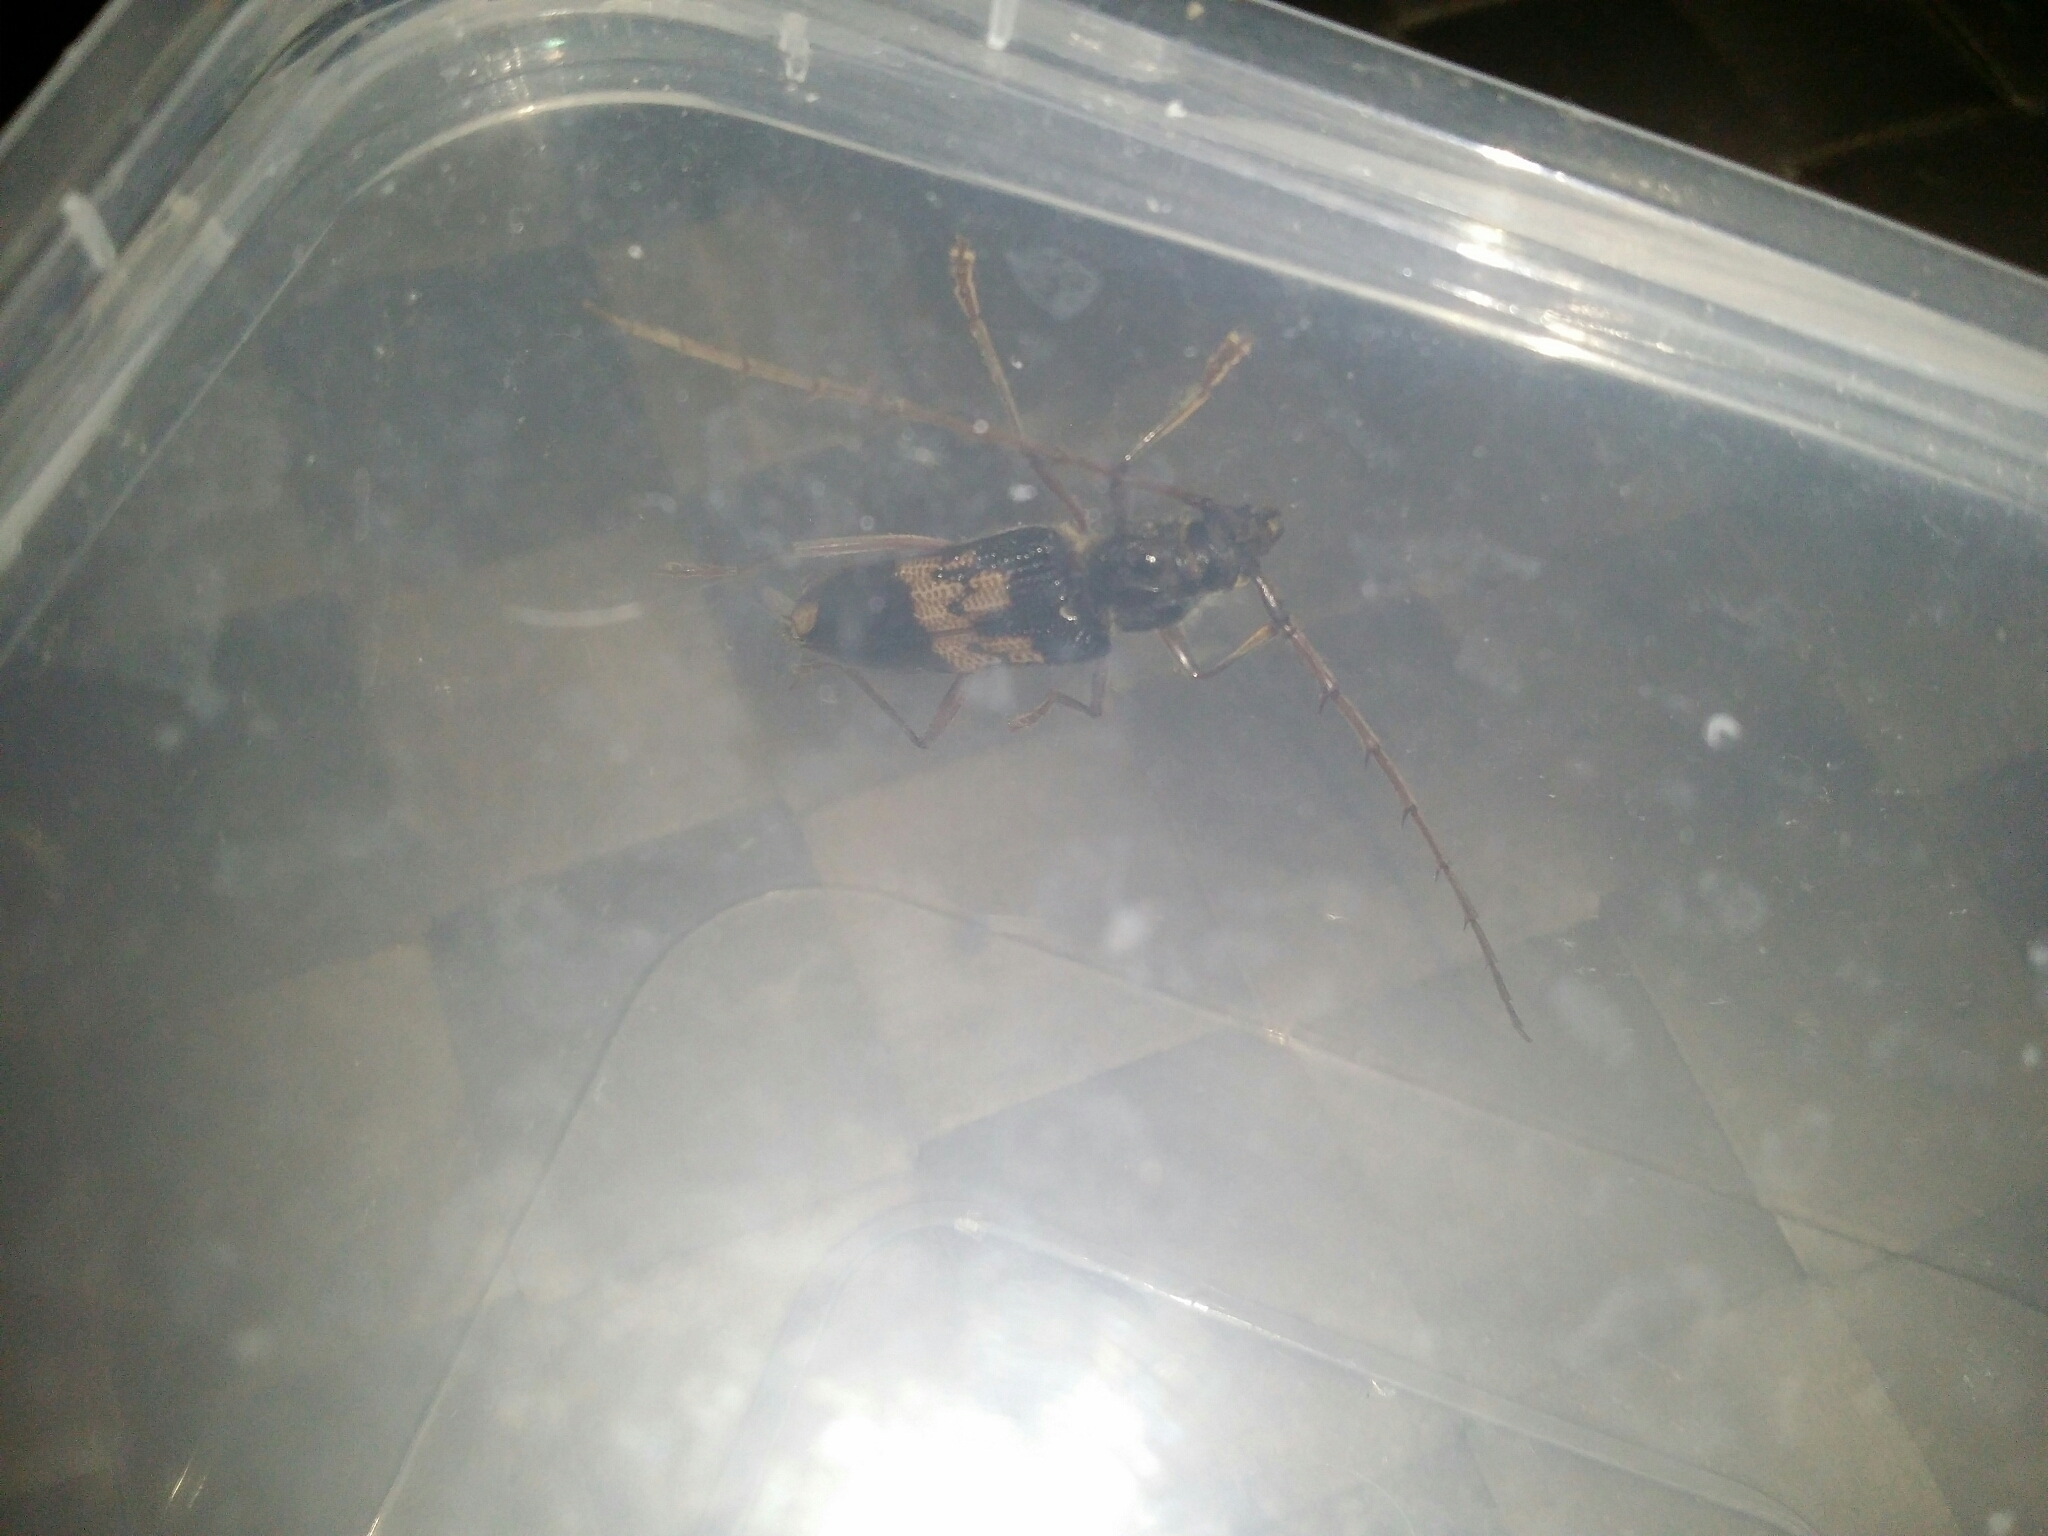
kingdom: Animalia
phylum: Arthropoda
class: Insecta
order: Coleoptera
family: Cerambycidae
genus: Phoracantha
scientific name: Phoracantha semipunctata
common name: Eucalyptus longhorn borer
